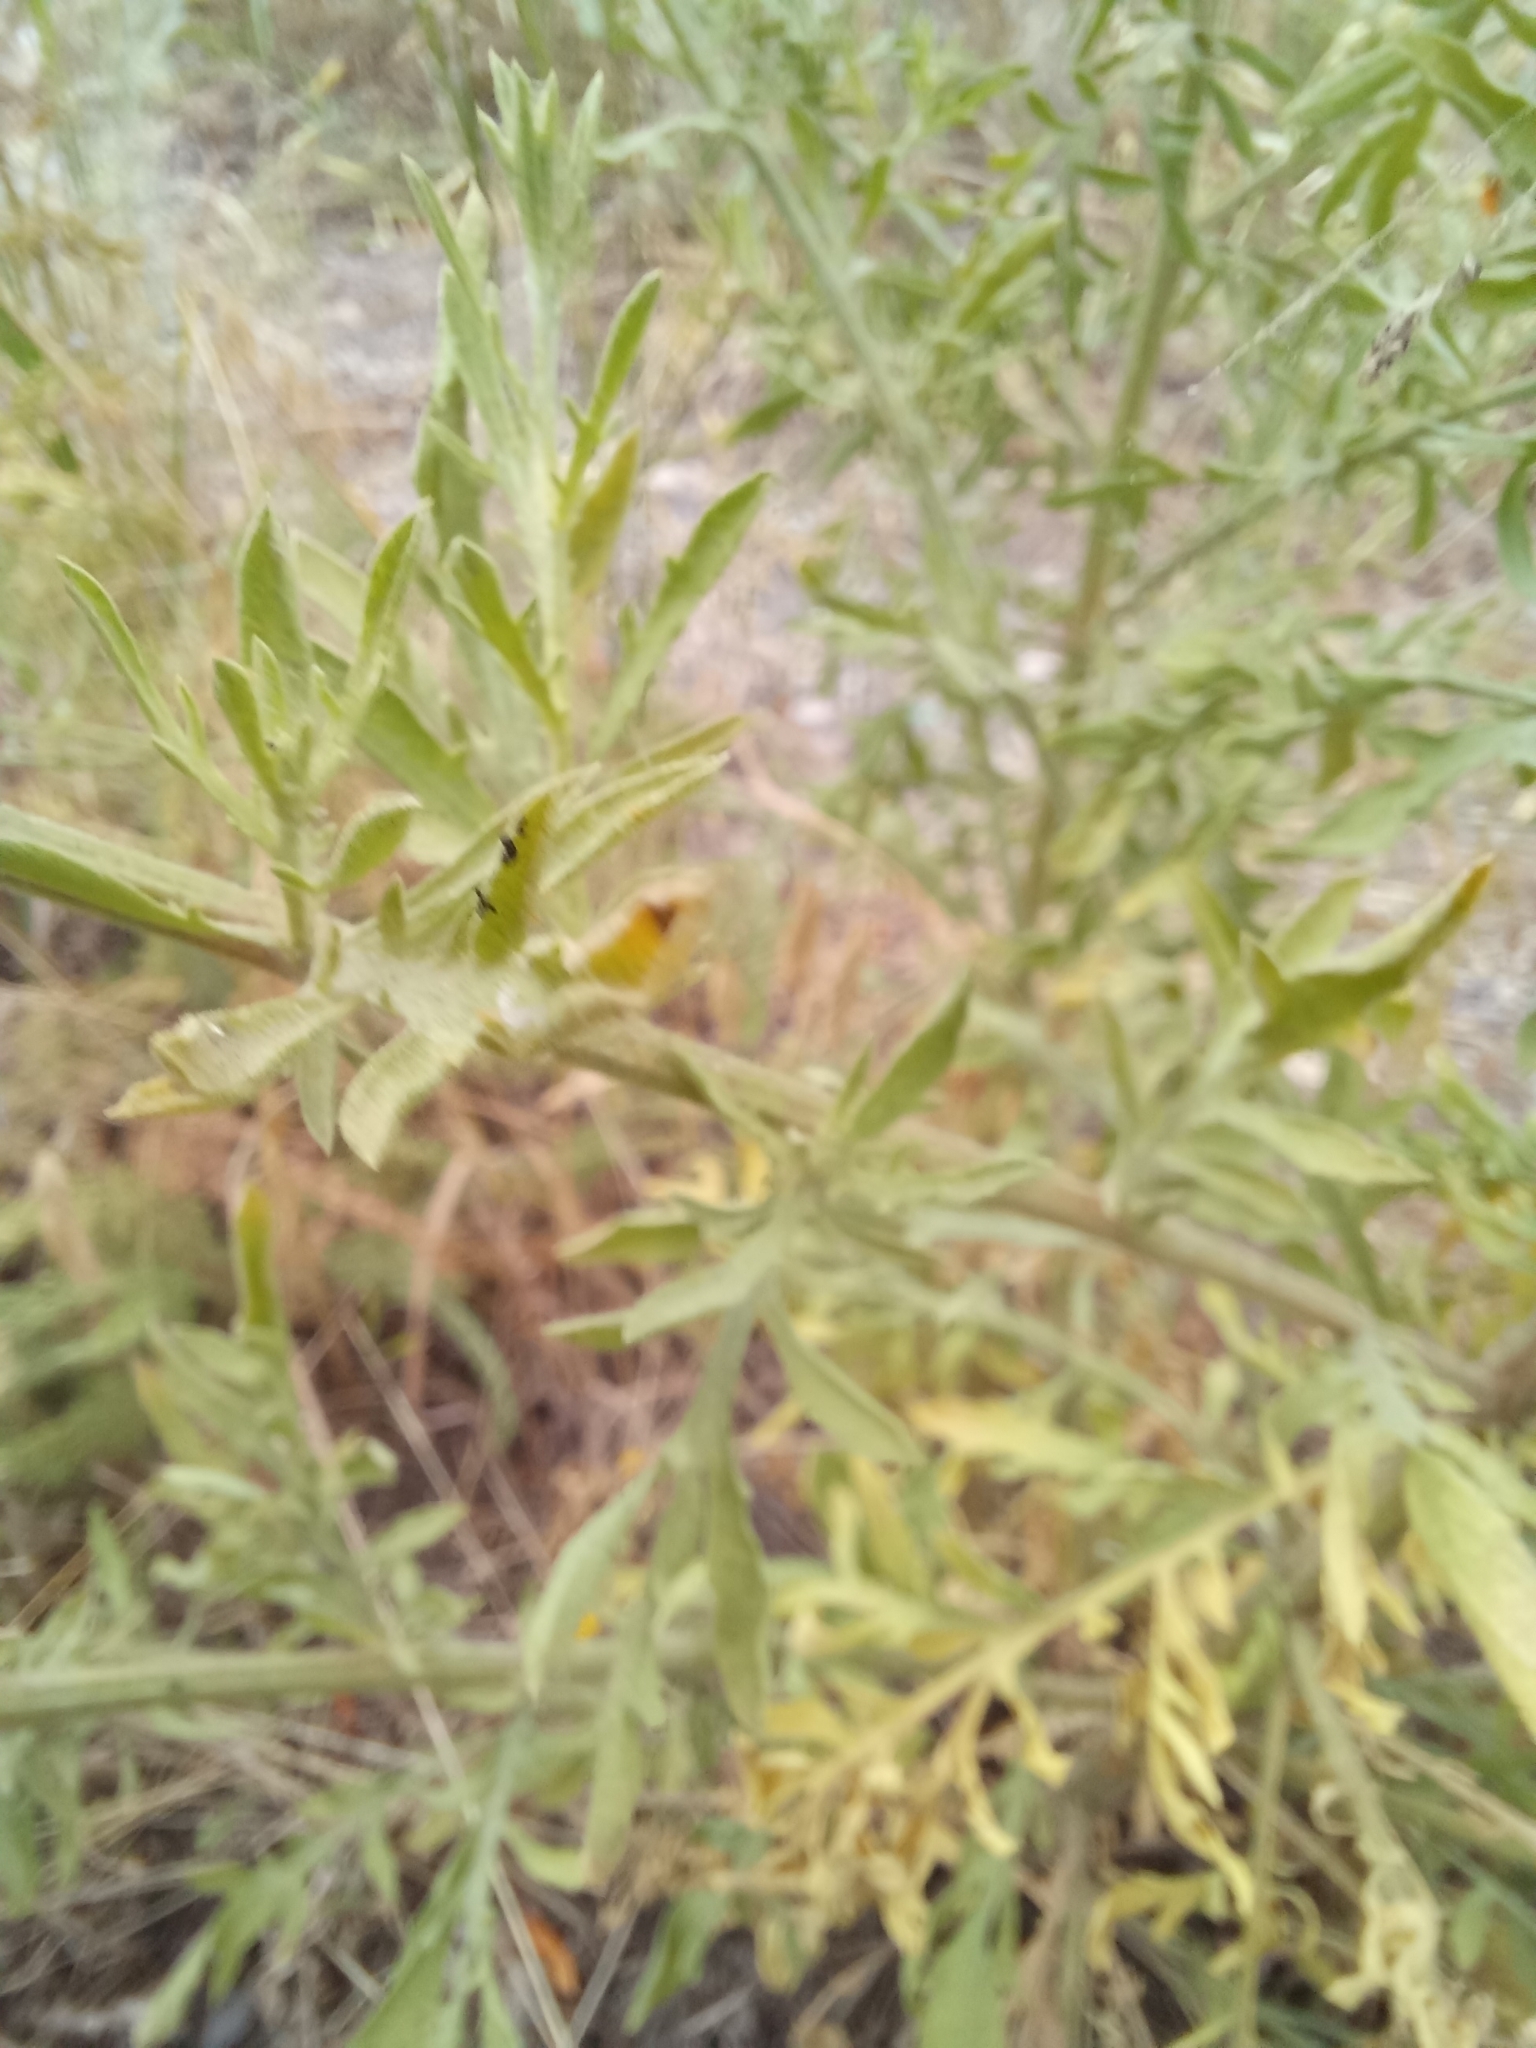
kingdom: Plantae
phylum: Tracheophyta
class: Magnoliopsida
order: Asterales
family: Asteraceae
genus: Centaurea
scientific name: Centaurea diffusa
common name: Diffuse knapweed
